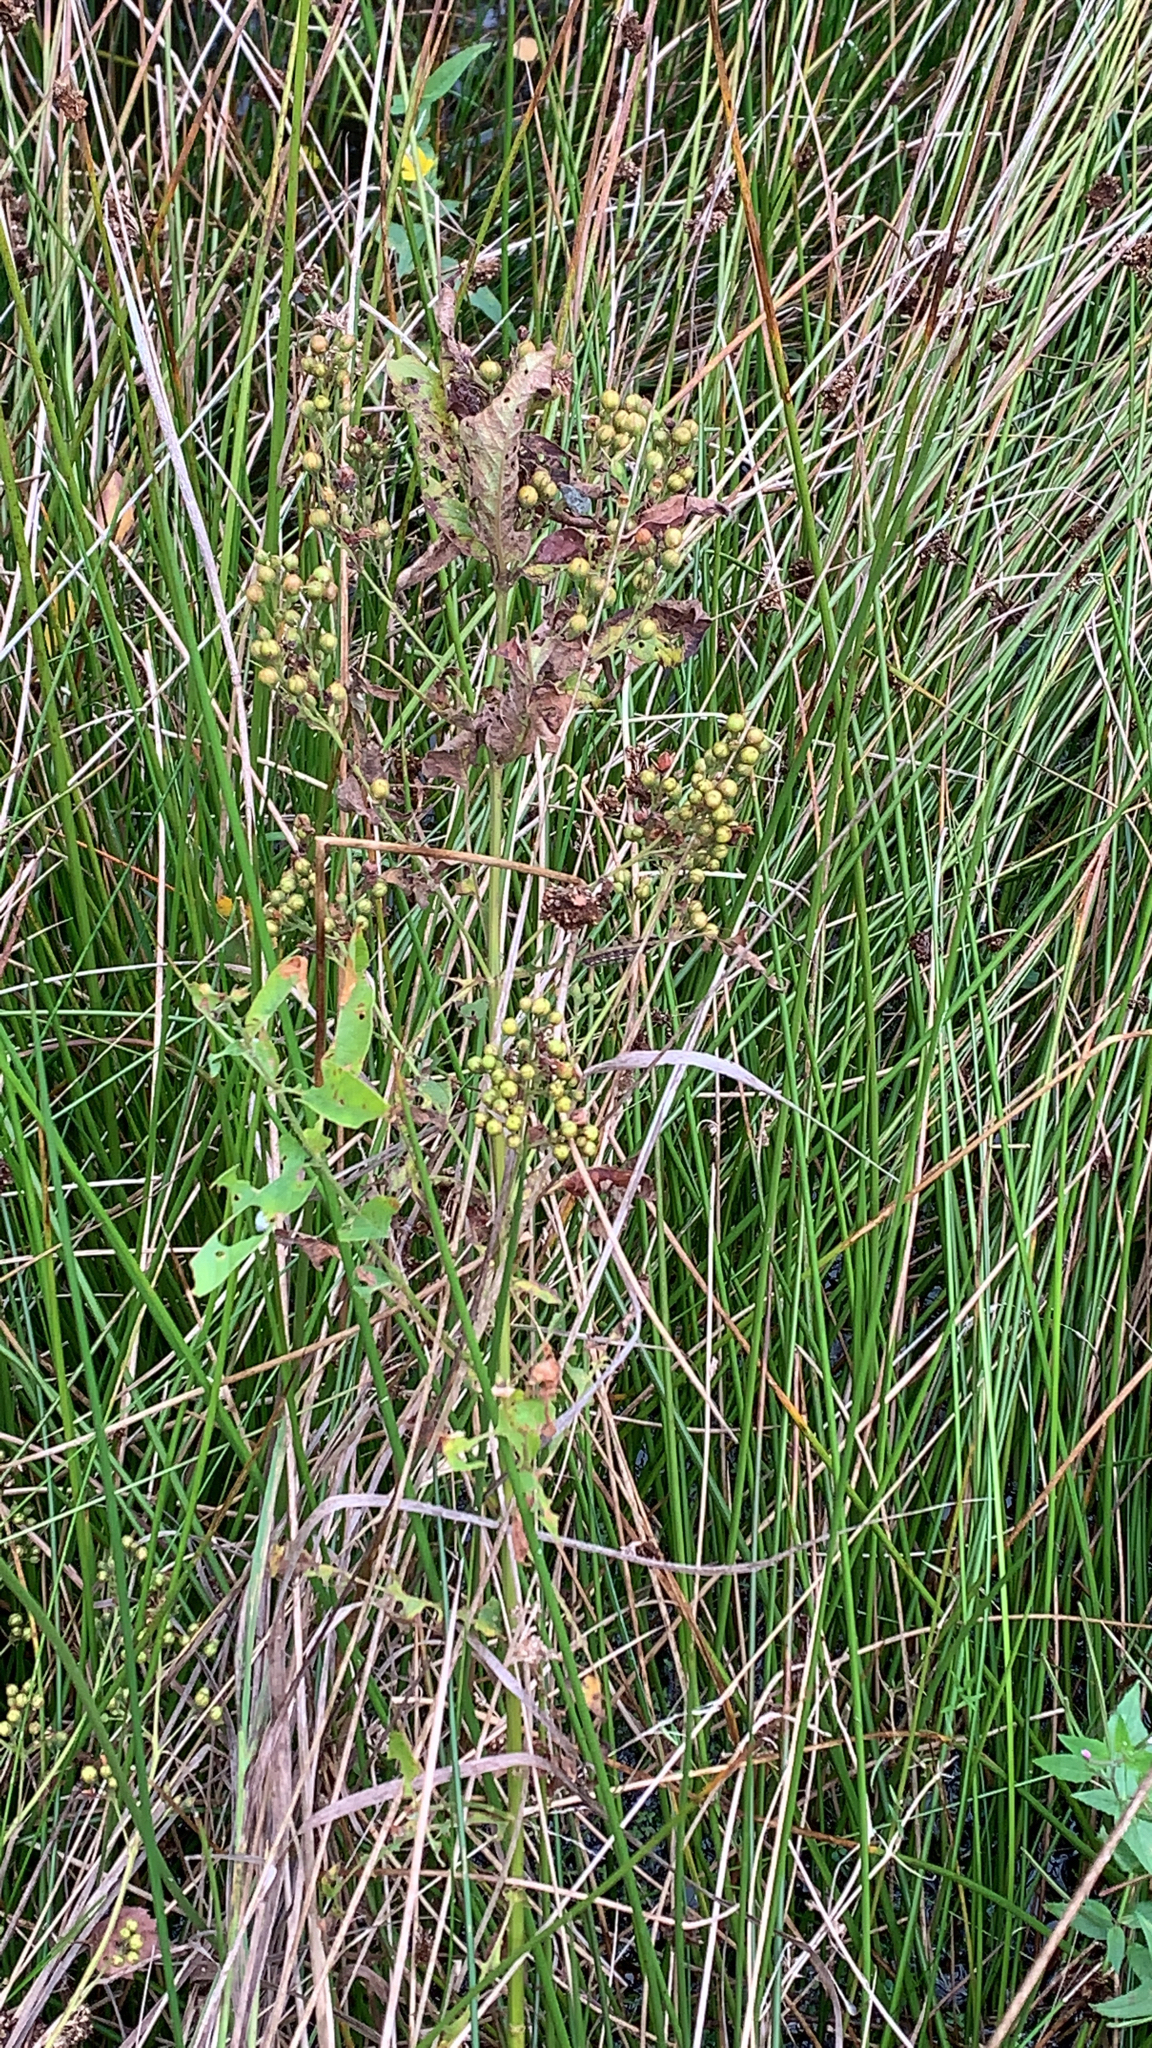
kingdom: Plantae
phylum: Tracheophyta
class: Magnoliopsida
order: Ericales
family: Primulaceae
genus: Lysimachia
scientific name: Lysimachia vulgaris
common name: Yellow loosestrife
